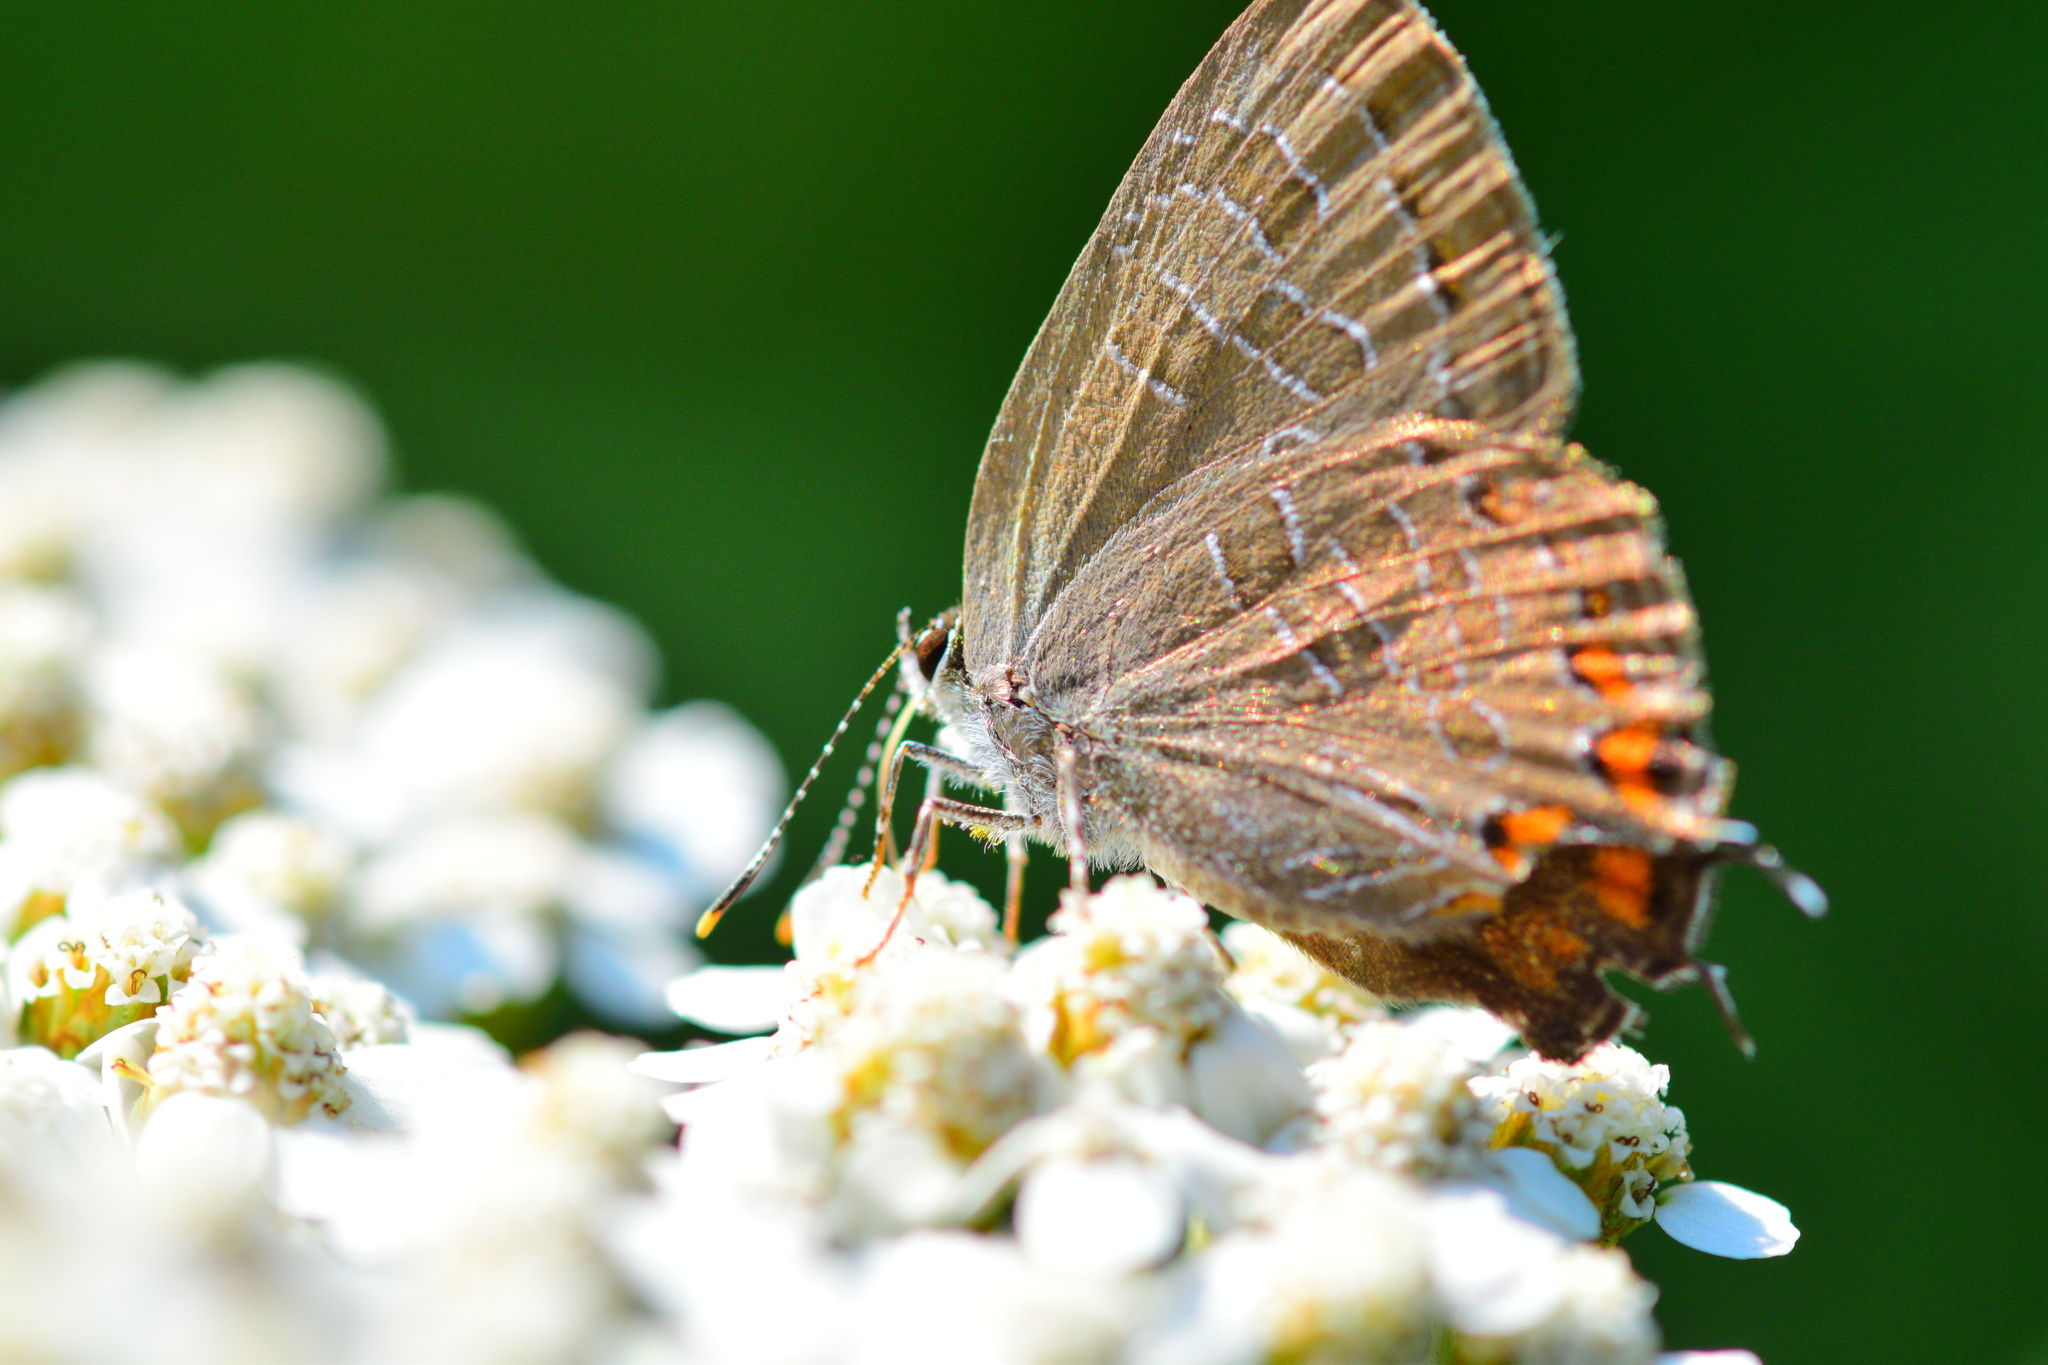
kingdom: Animalia
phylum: Arthropoda
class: Insecta
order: Lepidoptera
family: Lycaenidae
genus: Satyrium
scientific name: Satyrium liparops
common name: Striped hairstreak
